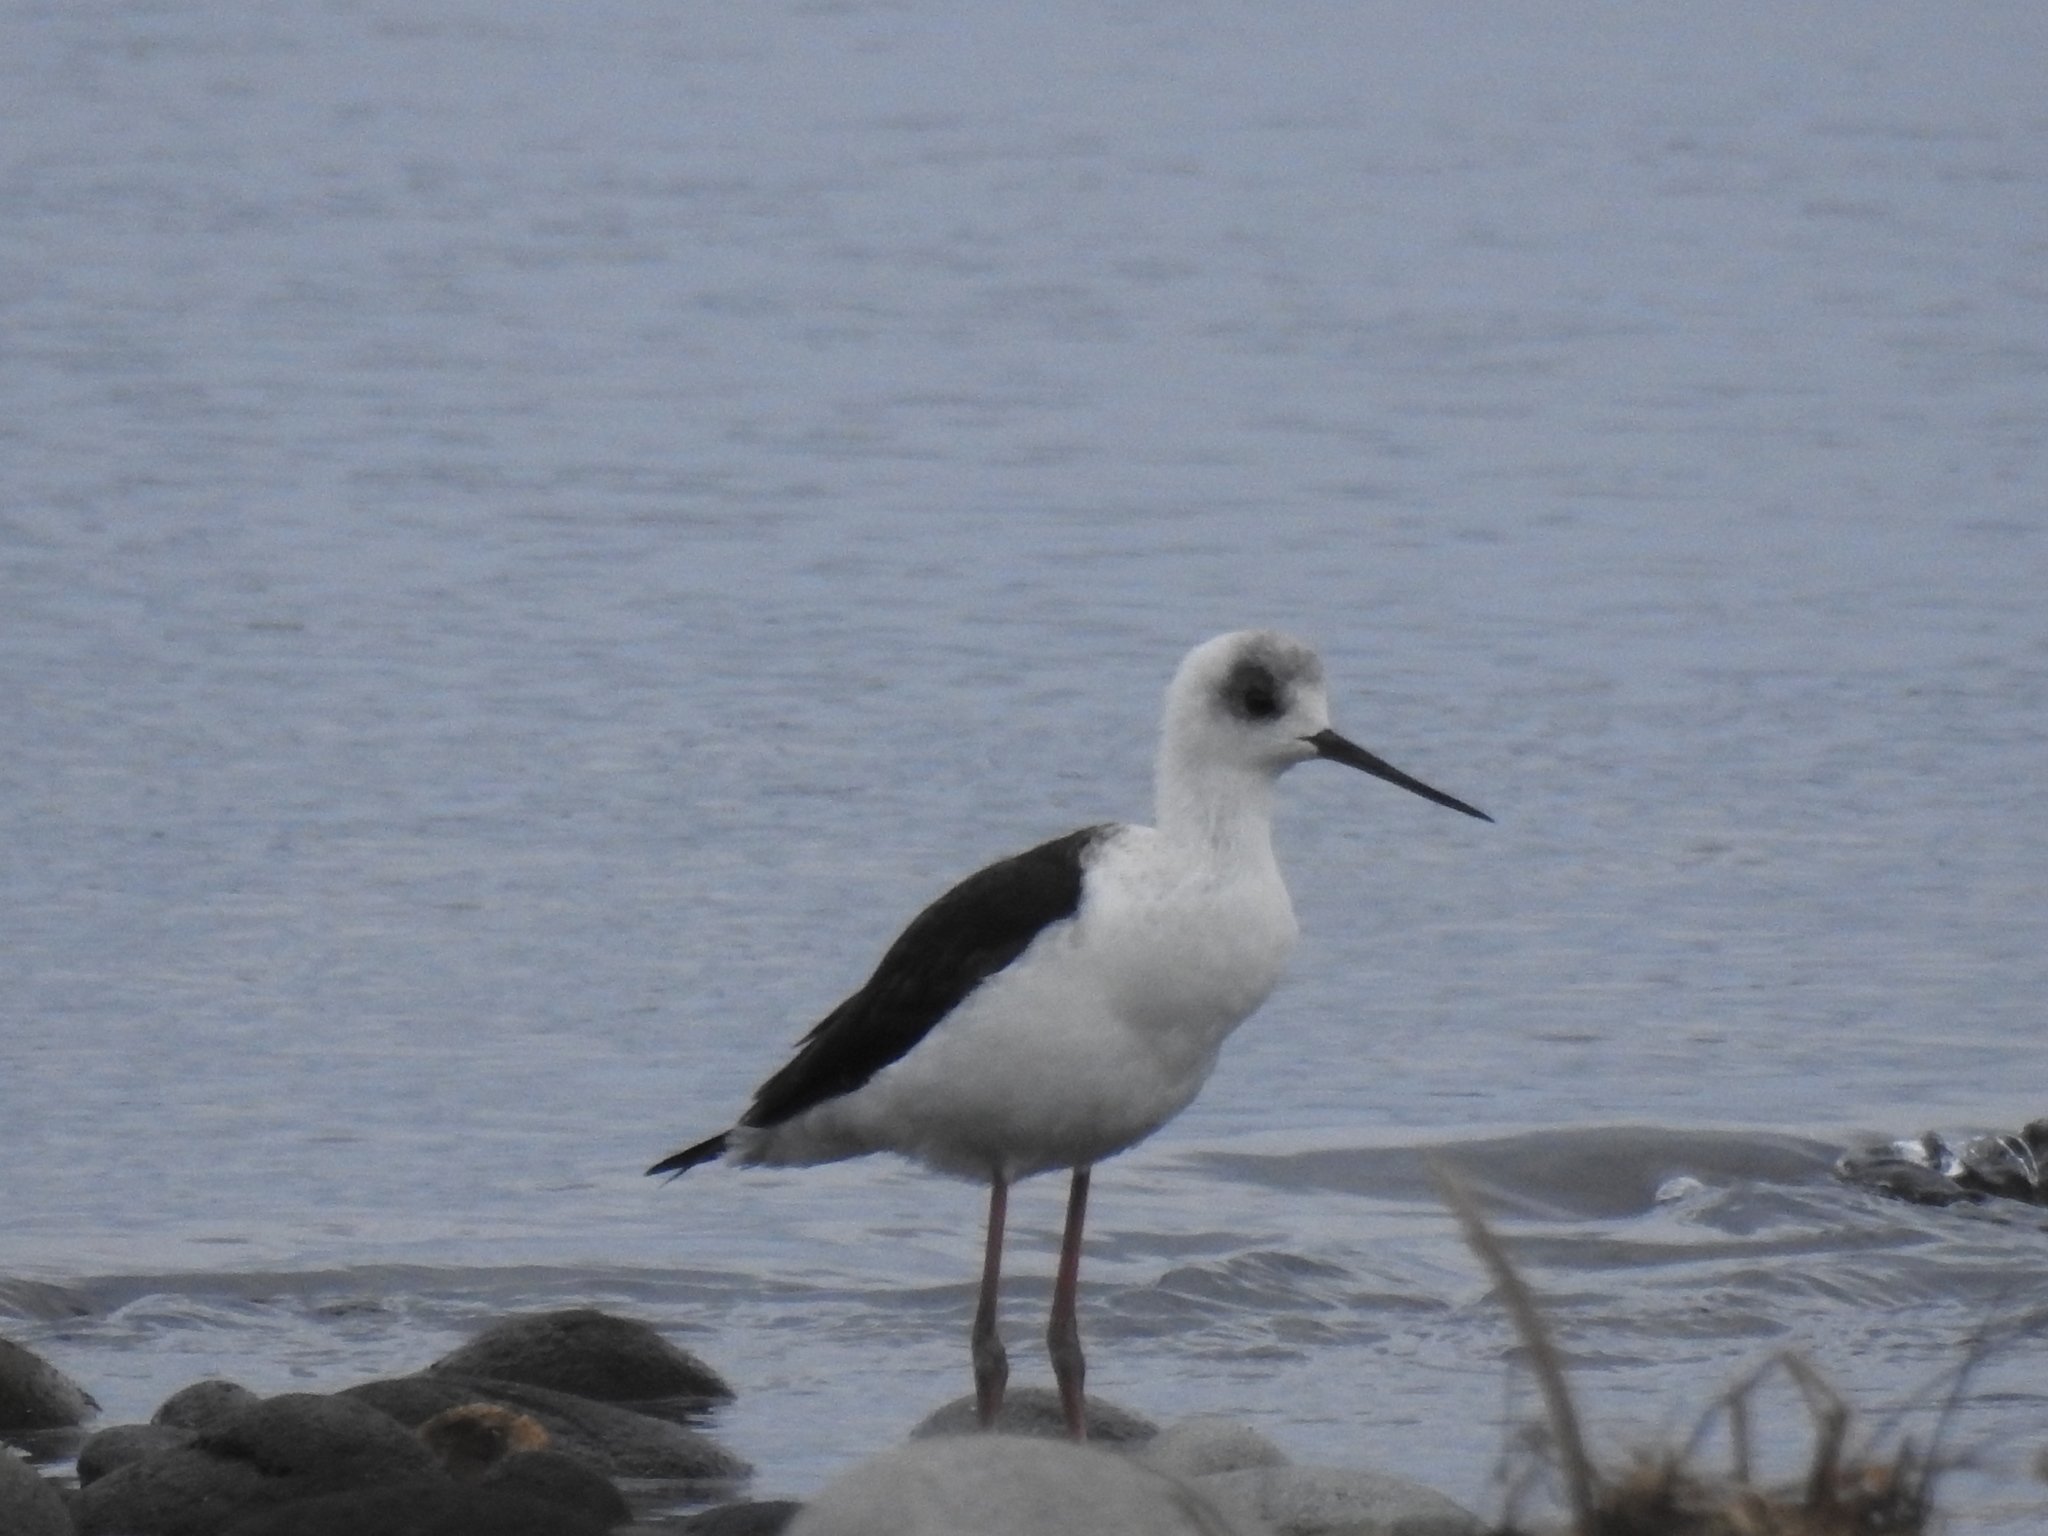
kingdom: Animalia
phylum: Chordata
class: Aves
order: Charadriiformes
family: Recurvirostridae
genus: Himantopus
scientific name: Himantopus leucocephalus
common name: White-headed stilt
